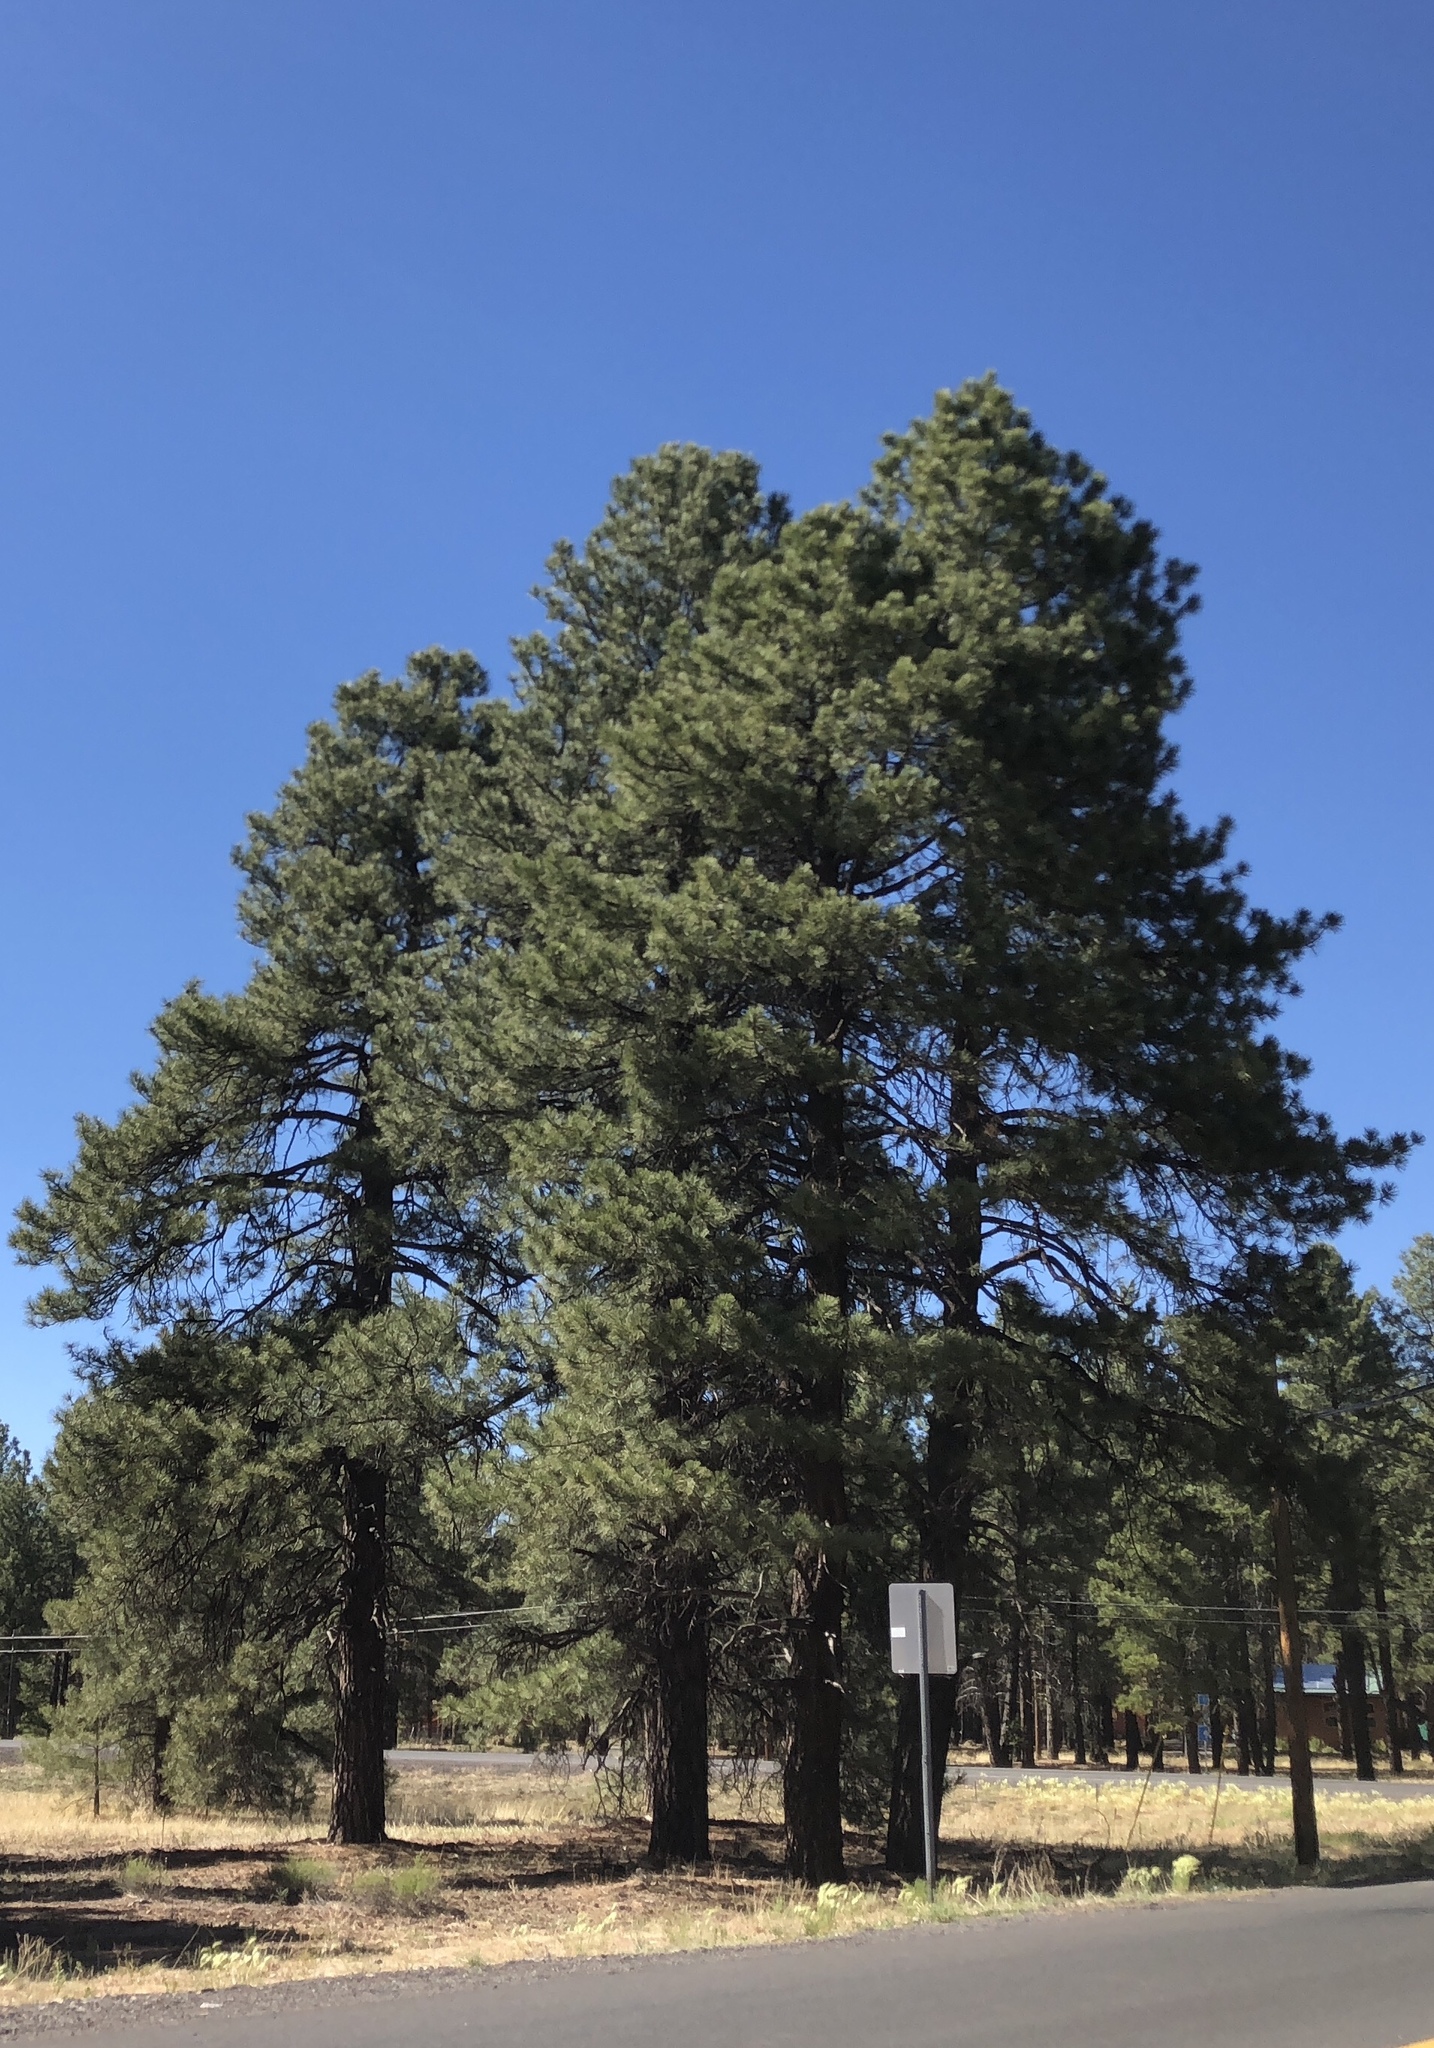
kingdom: Plantae
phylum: Tracheophyta
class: Pinopsida
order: Pinales
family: Pinaceae
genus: Pinus
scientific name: Pinus ponderosa
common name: Western yellow-pine
